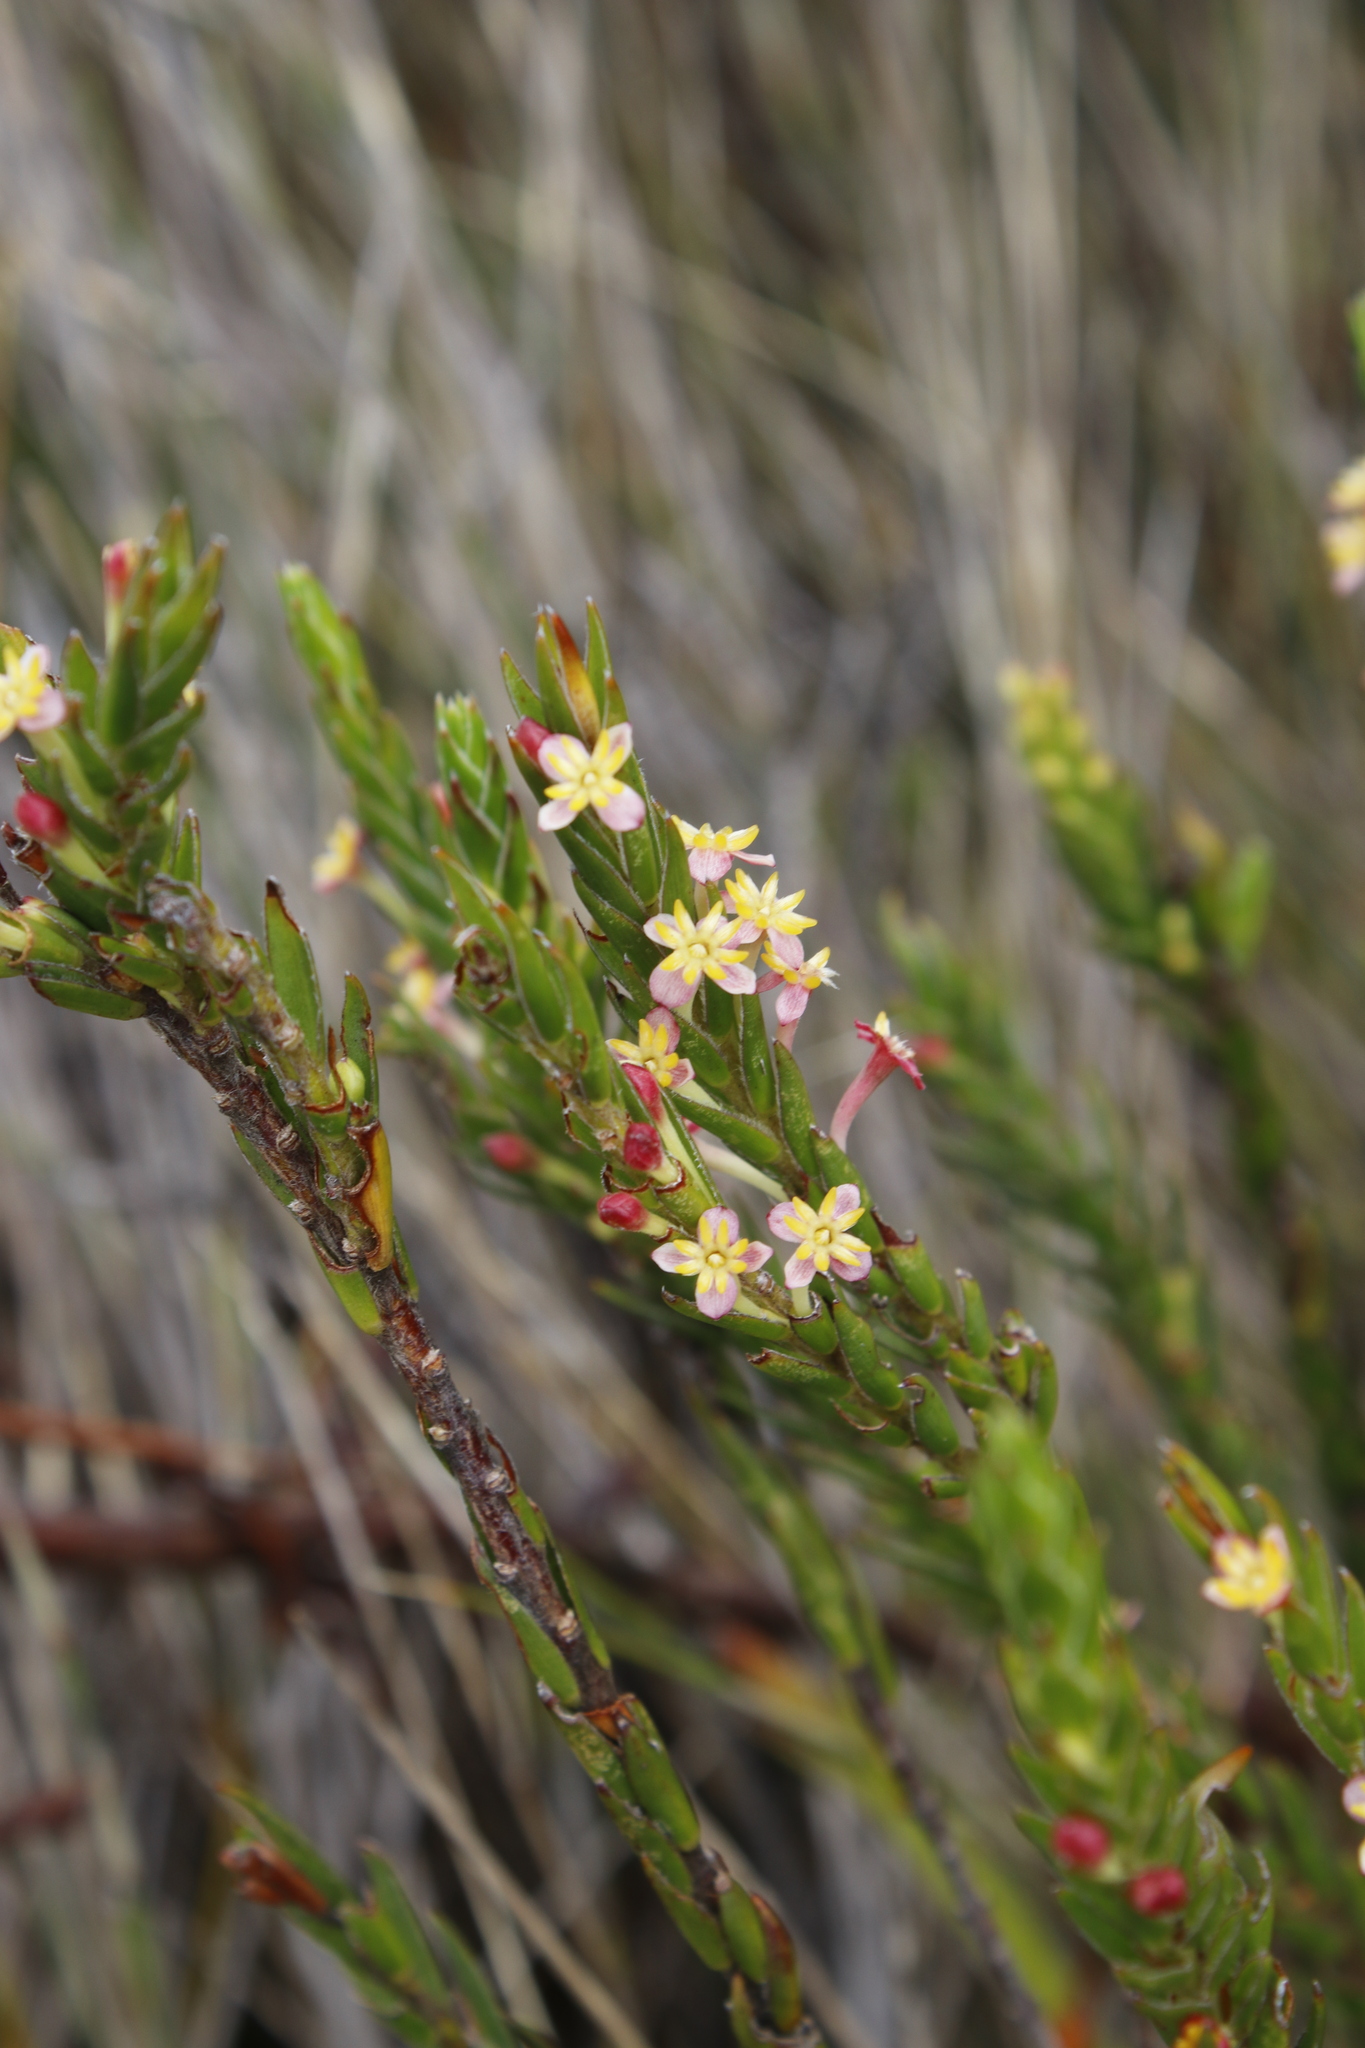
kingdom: Plantae
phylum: Tracheophyta
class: Magnoliopsida
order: Malvales
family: Thymelaeaceae
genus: Struthiola
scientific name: Struthiola ciliata
